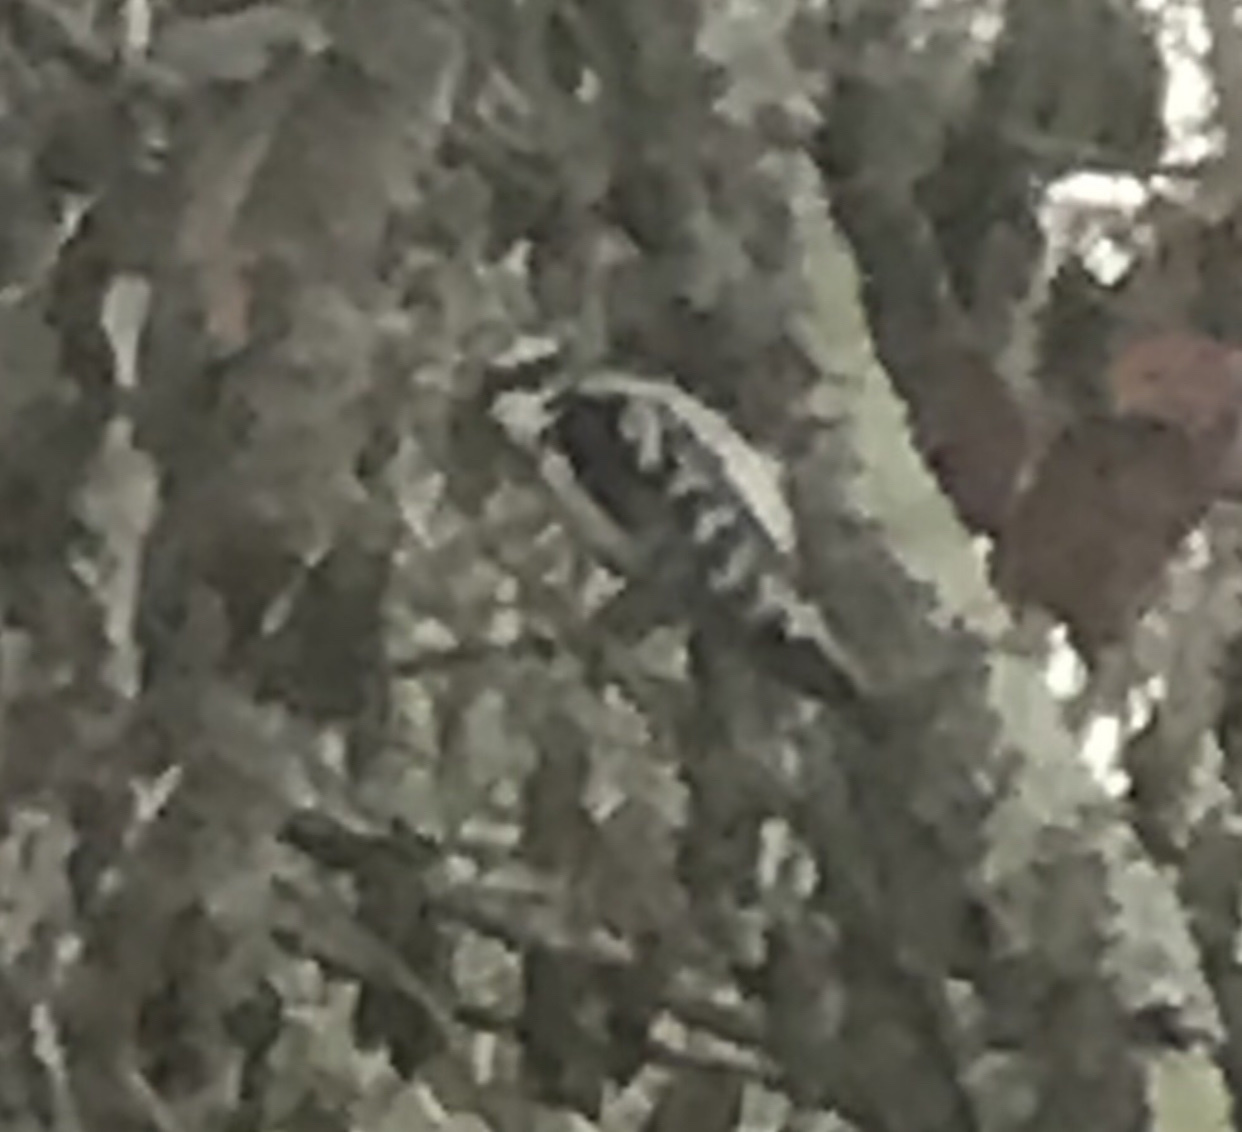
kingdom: Animalia
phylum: Chordata
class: Aves
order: Piciformes
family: Picidae
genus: Dryobates
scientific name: Dryobates pubescens
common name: Downy woodpecker
